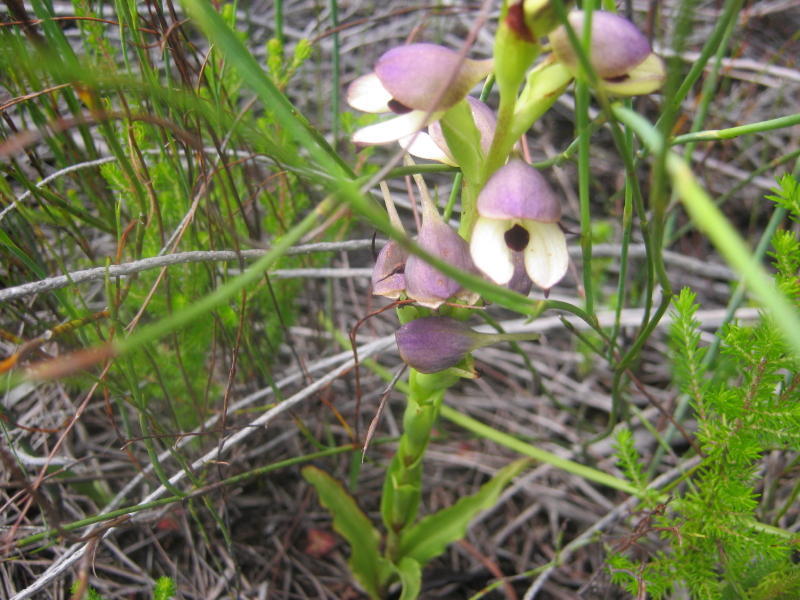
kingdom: Plantae
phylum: Tracheophyta
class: Liliopsida
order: Asparagales
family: Orchidaceae
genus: Disa
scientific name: Disa cornuta
